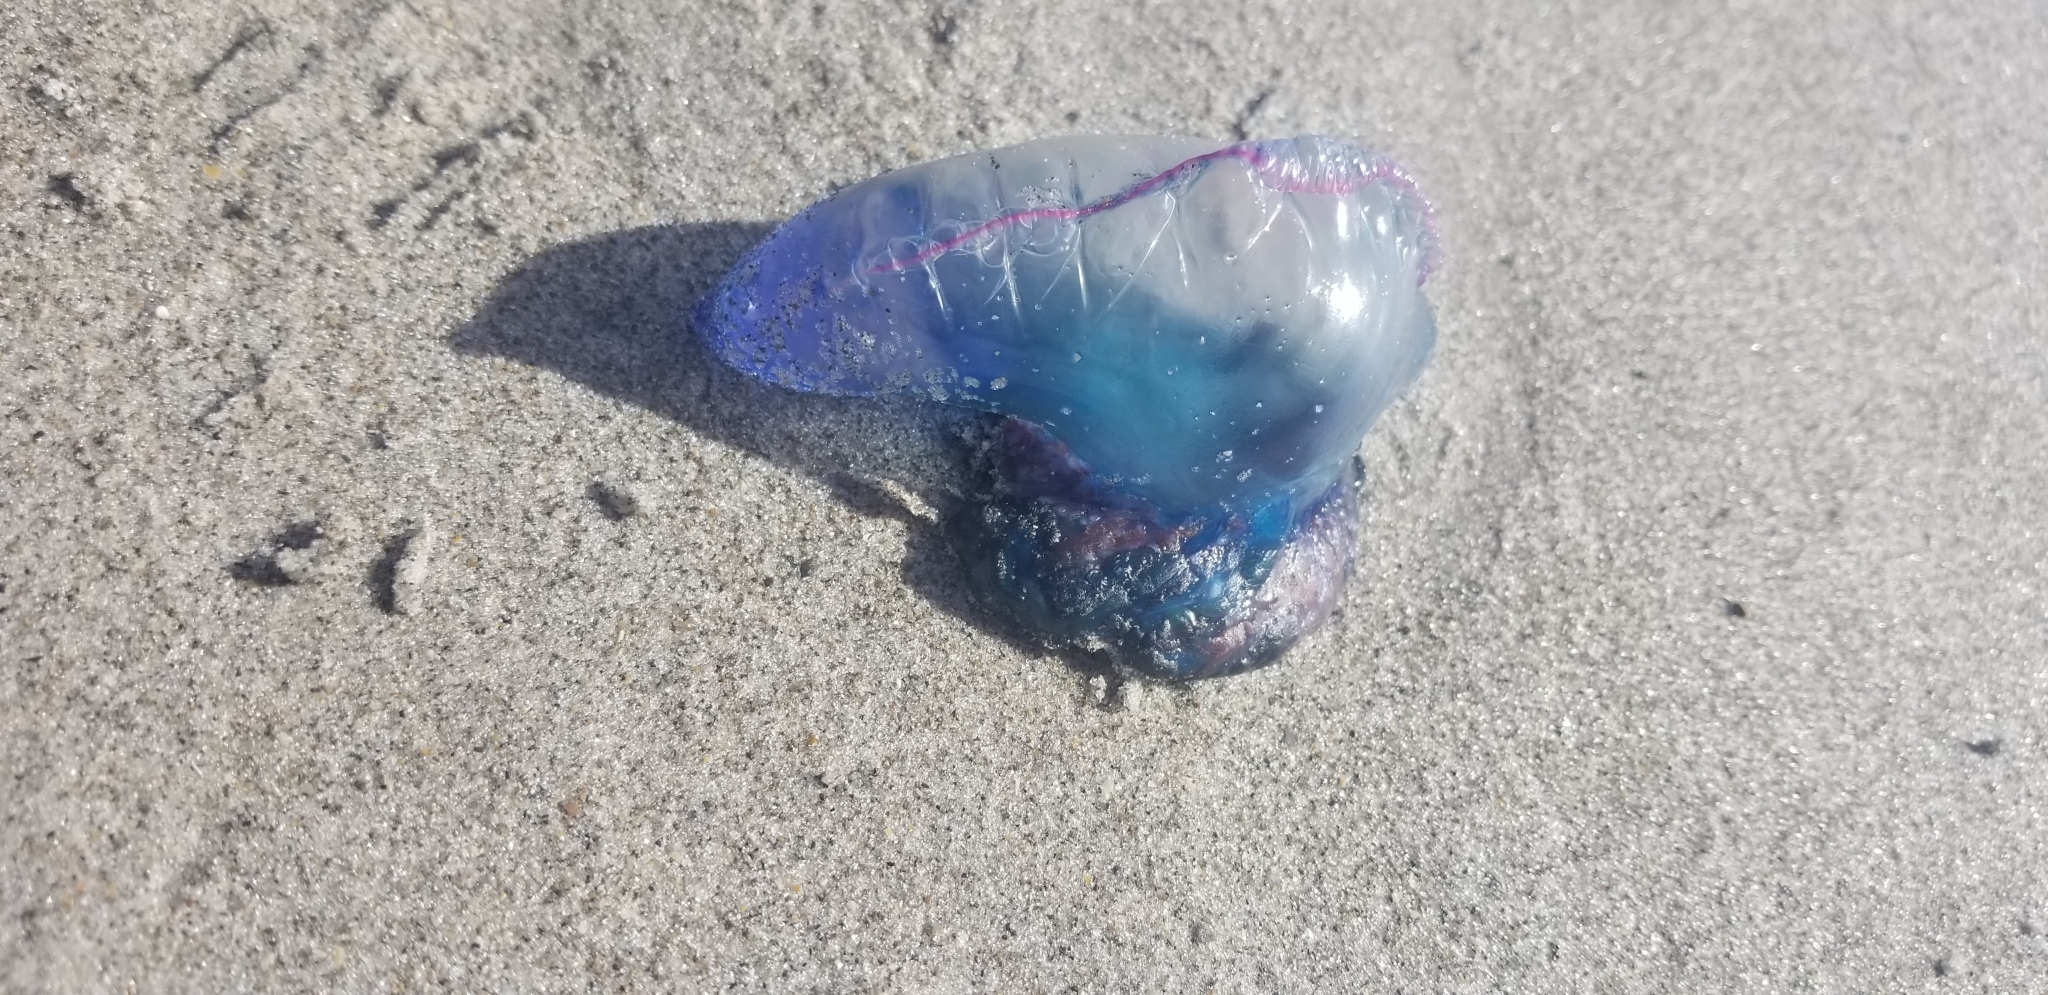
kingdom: Animalia
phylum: Cnidaria
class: Hydrozoa
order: Siphonophorae
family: Physaliidae
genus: Physalia
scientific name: Physalia physalis
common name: Portuguese man-of-war
